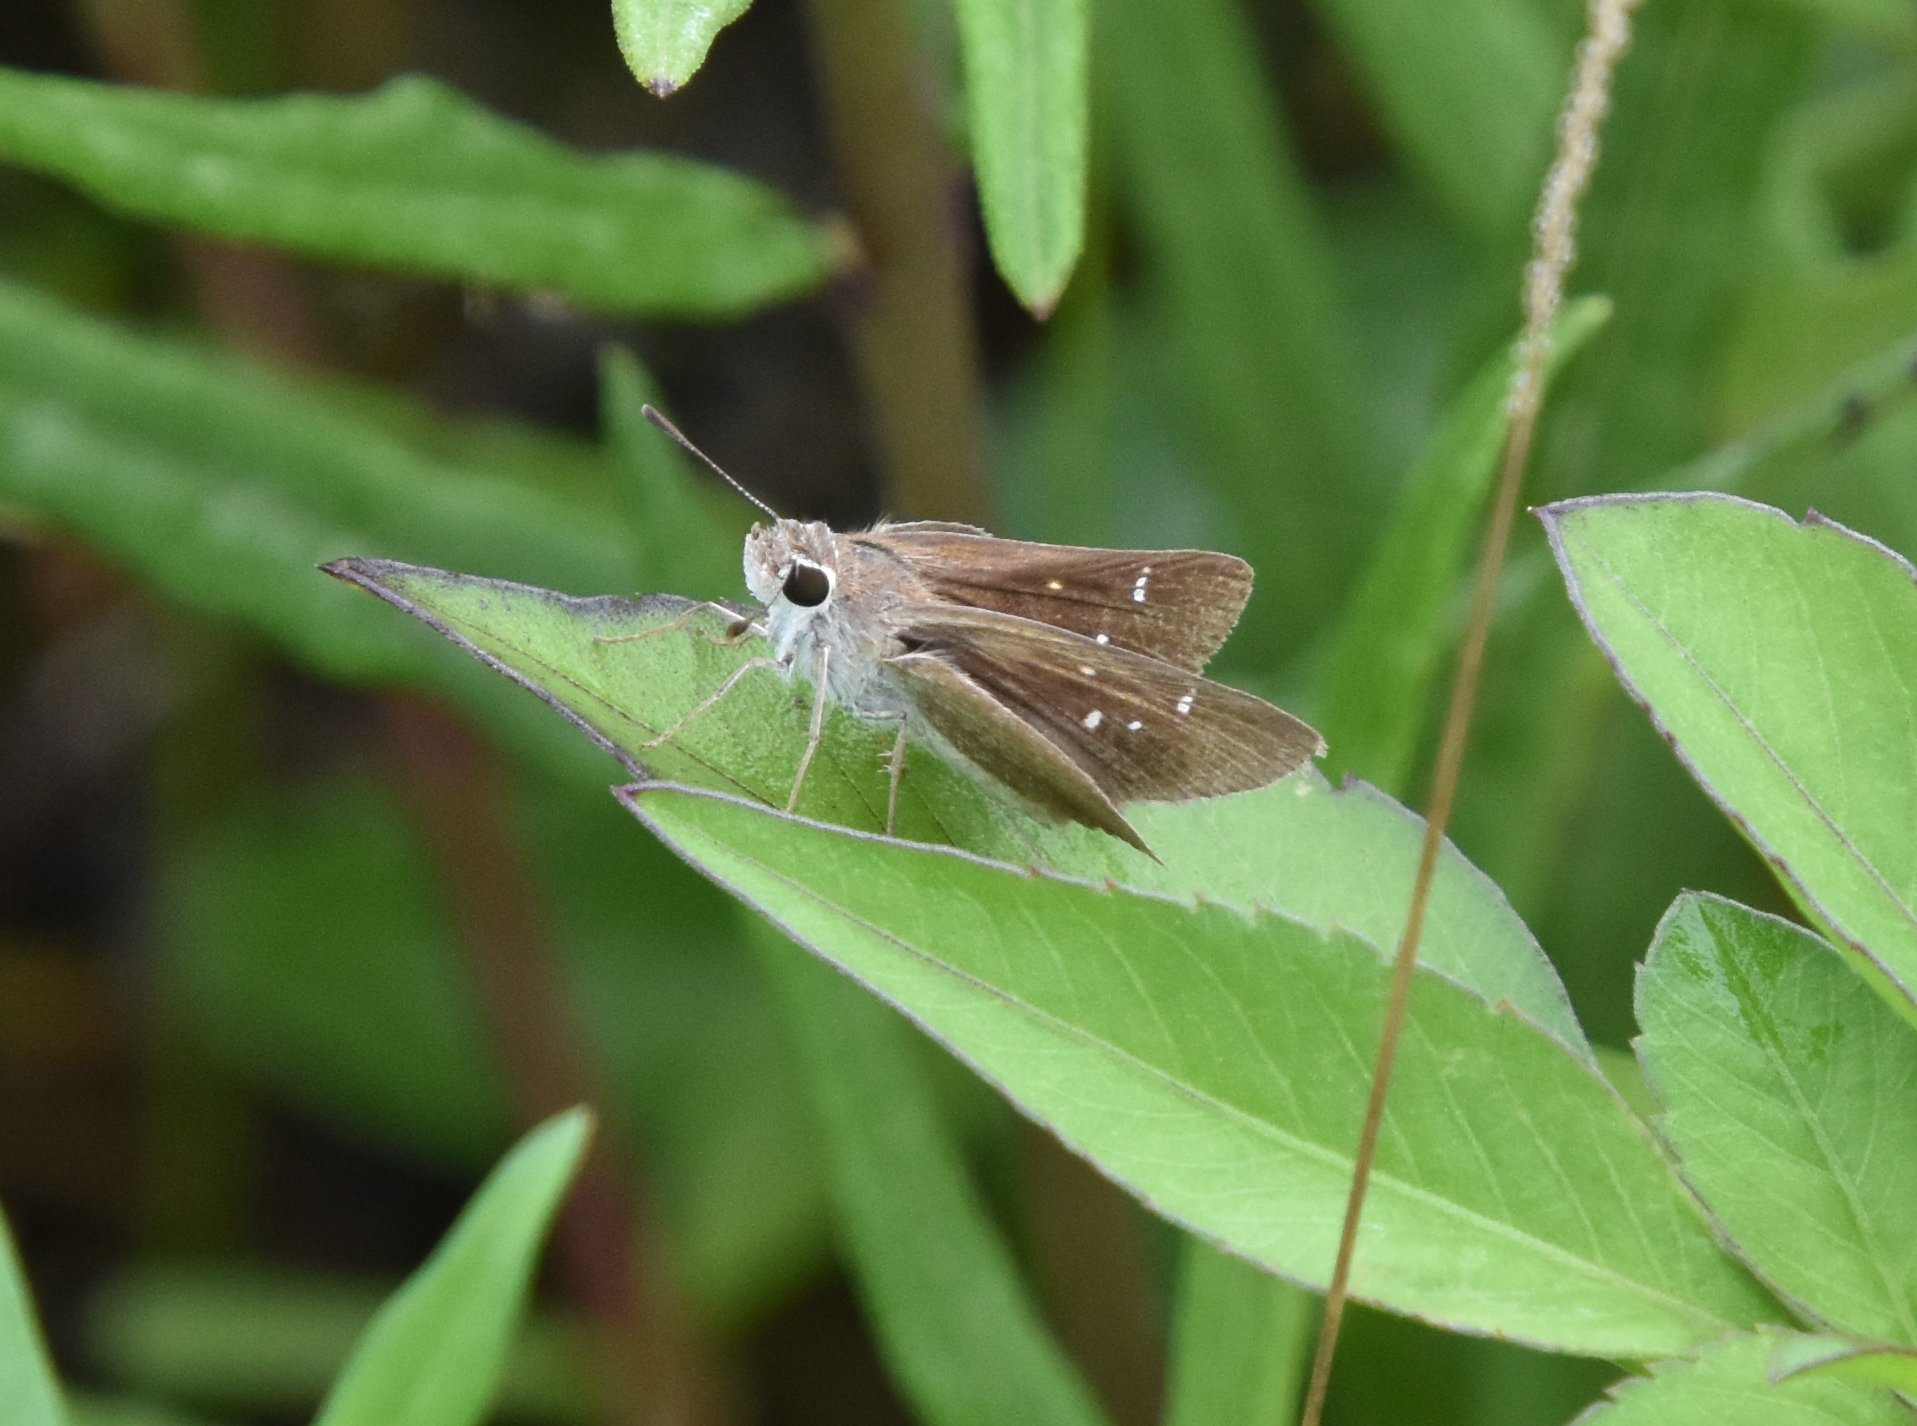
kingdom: Animalia
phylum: Arthropoda
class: Insecta
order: Lepidoptera
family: Hesperiidae
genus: Lerodea
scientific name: Lerodea eufala
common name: Eufala skipper
